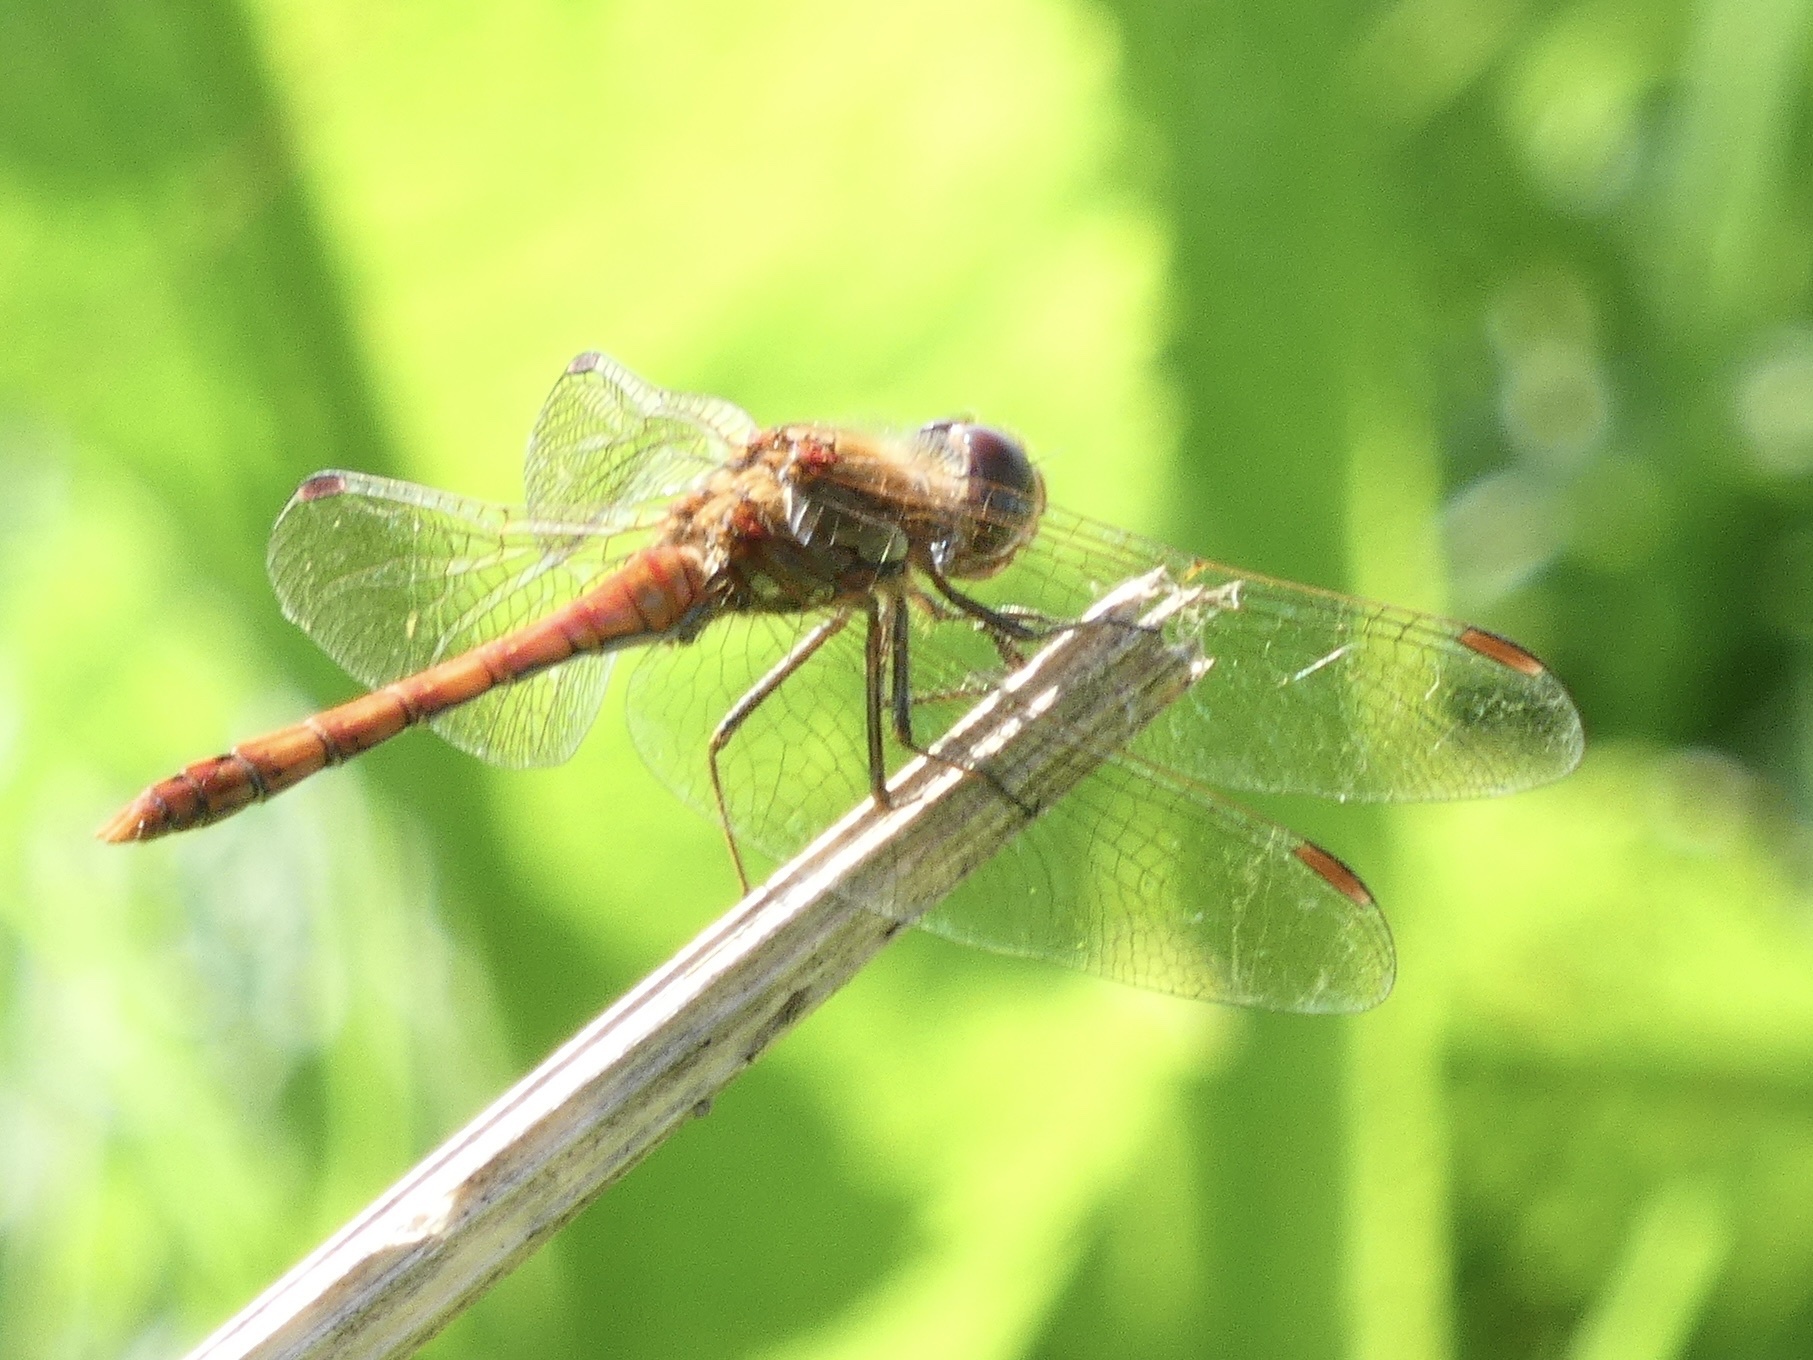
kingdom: Animalia
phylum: Arthropoda
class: Insecta
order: Odonata
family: Libellulidae
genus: Sympetrum
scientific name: Sympetrum striolatum
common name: Common darter
